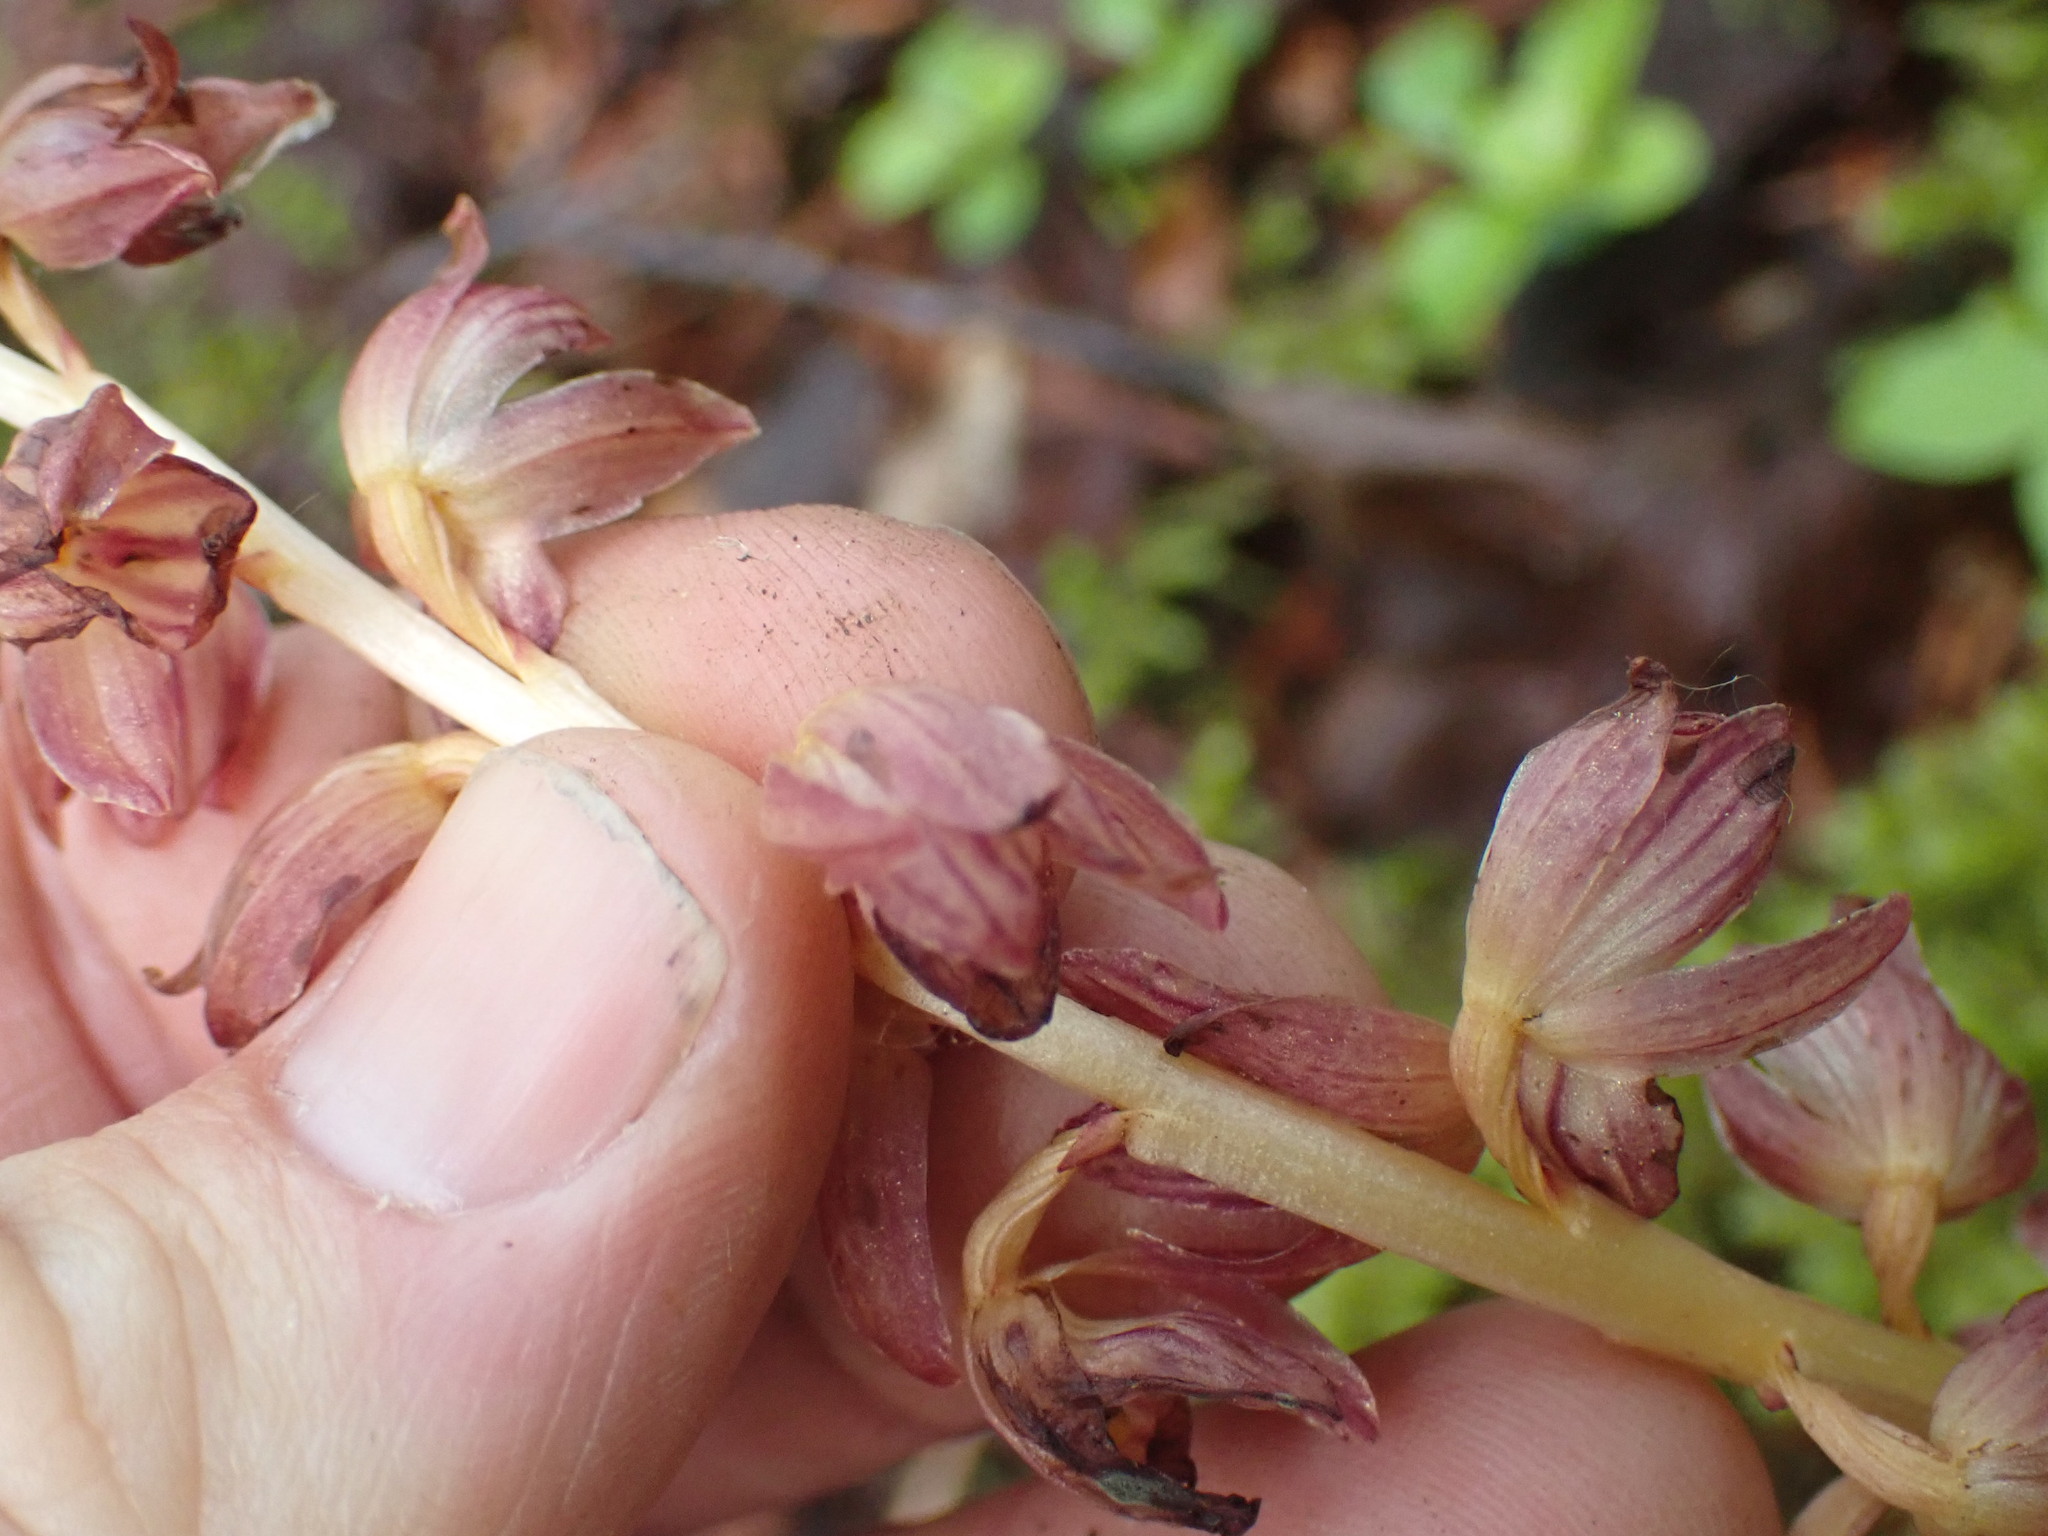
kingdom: Plantae
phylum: Tracheophyta
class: Liliopsida
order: Asparagales
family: Orchidaceae
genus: Corallorhiza
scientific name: Corallorhiza striata
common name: Hooded coralroot
